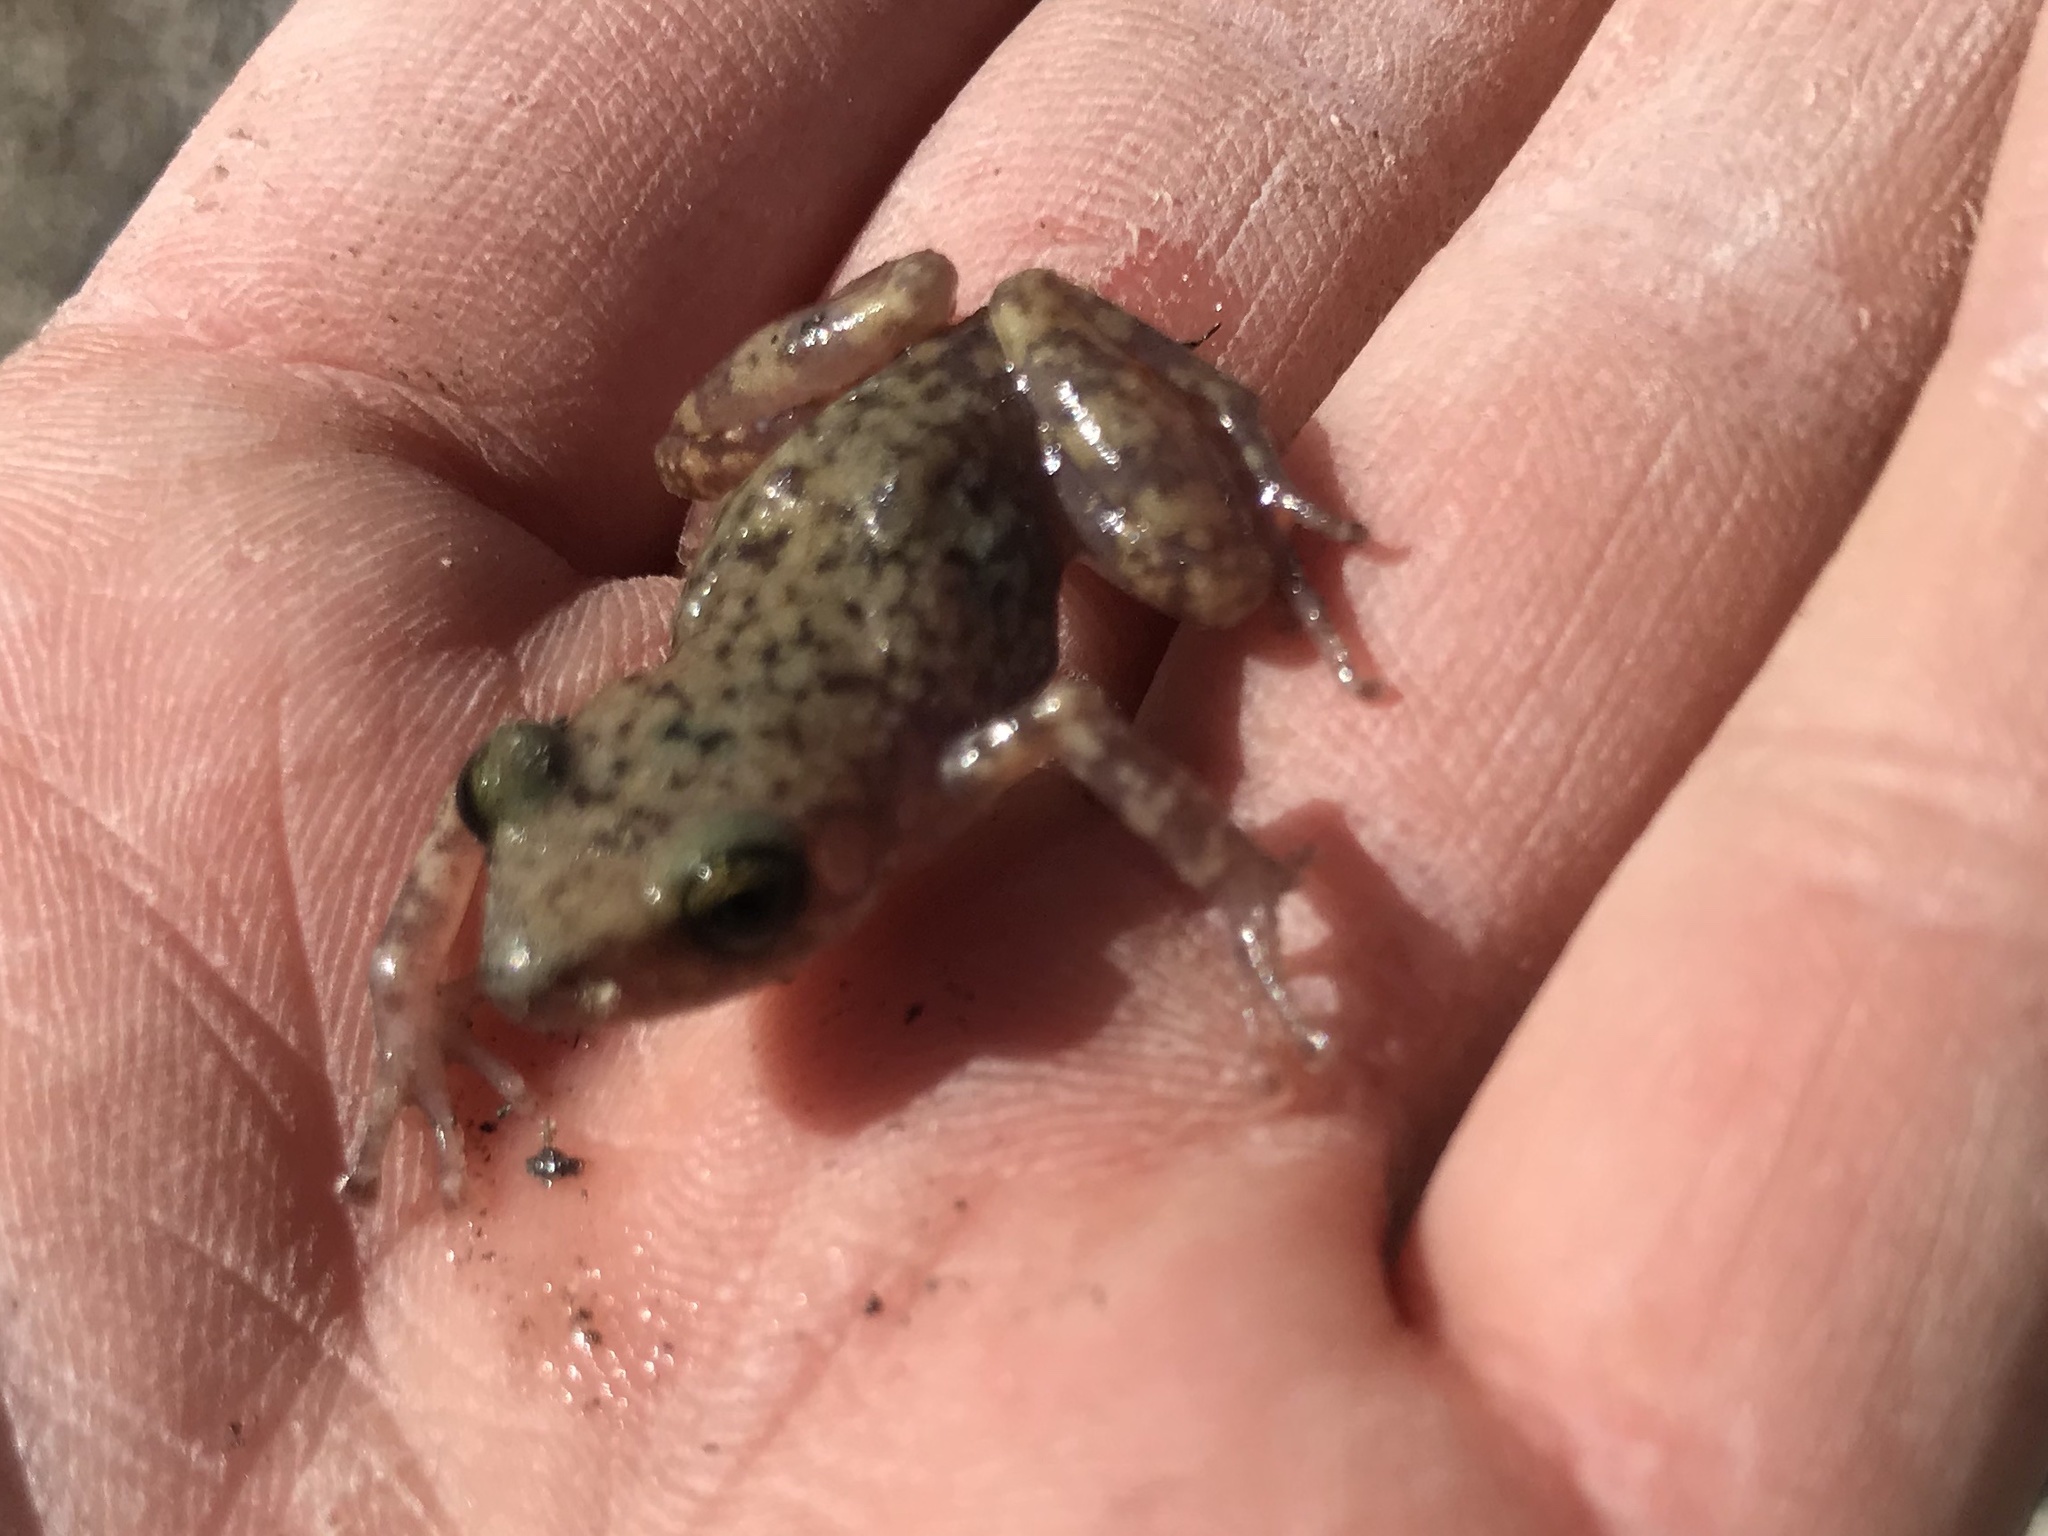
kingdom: Animalia
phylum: Chordata
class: Amphibia
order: Anura
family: Eleutherodactylidae
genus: Eleutherodactylus
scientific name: Eleutherodactylus marnockii
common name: Cliff chirping frog
